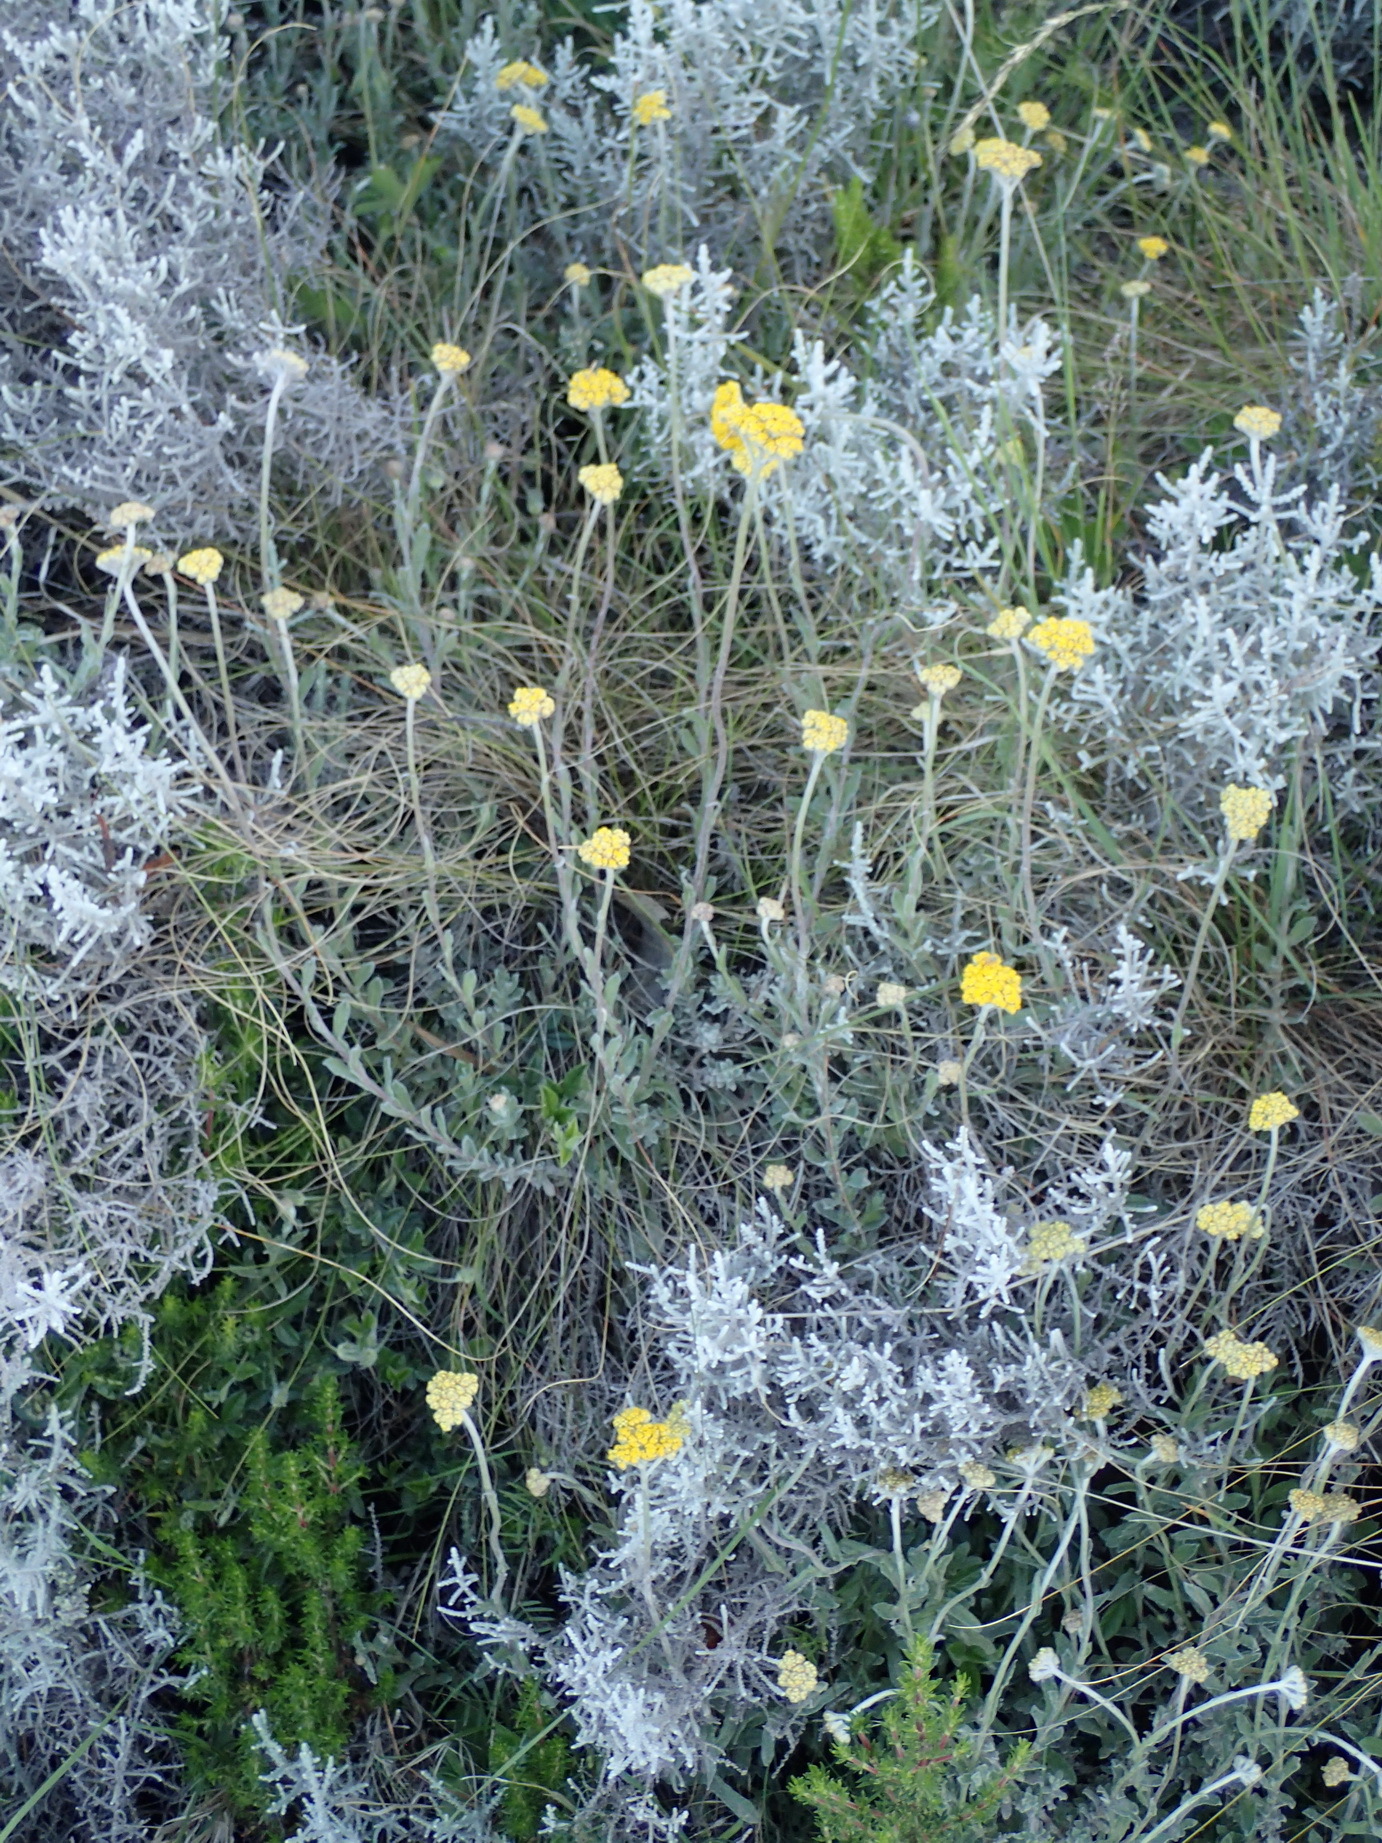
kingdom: Plantae
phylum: Tracheophyta
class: Magnoliopsida
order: Asterales
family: Asteraceae
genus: Helichrysum
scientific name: Helichrysum splendidum
